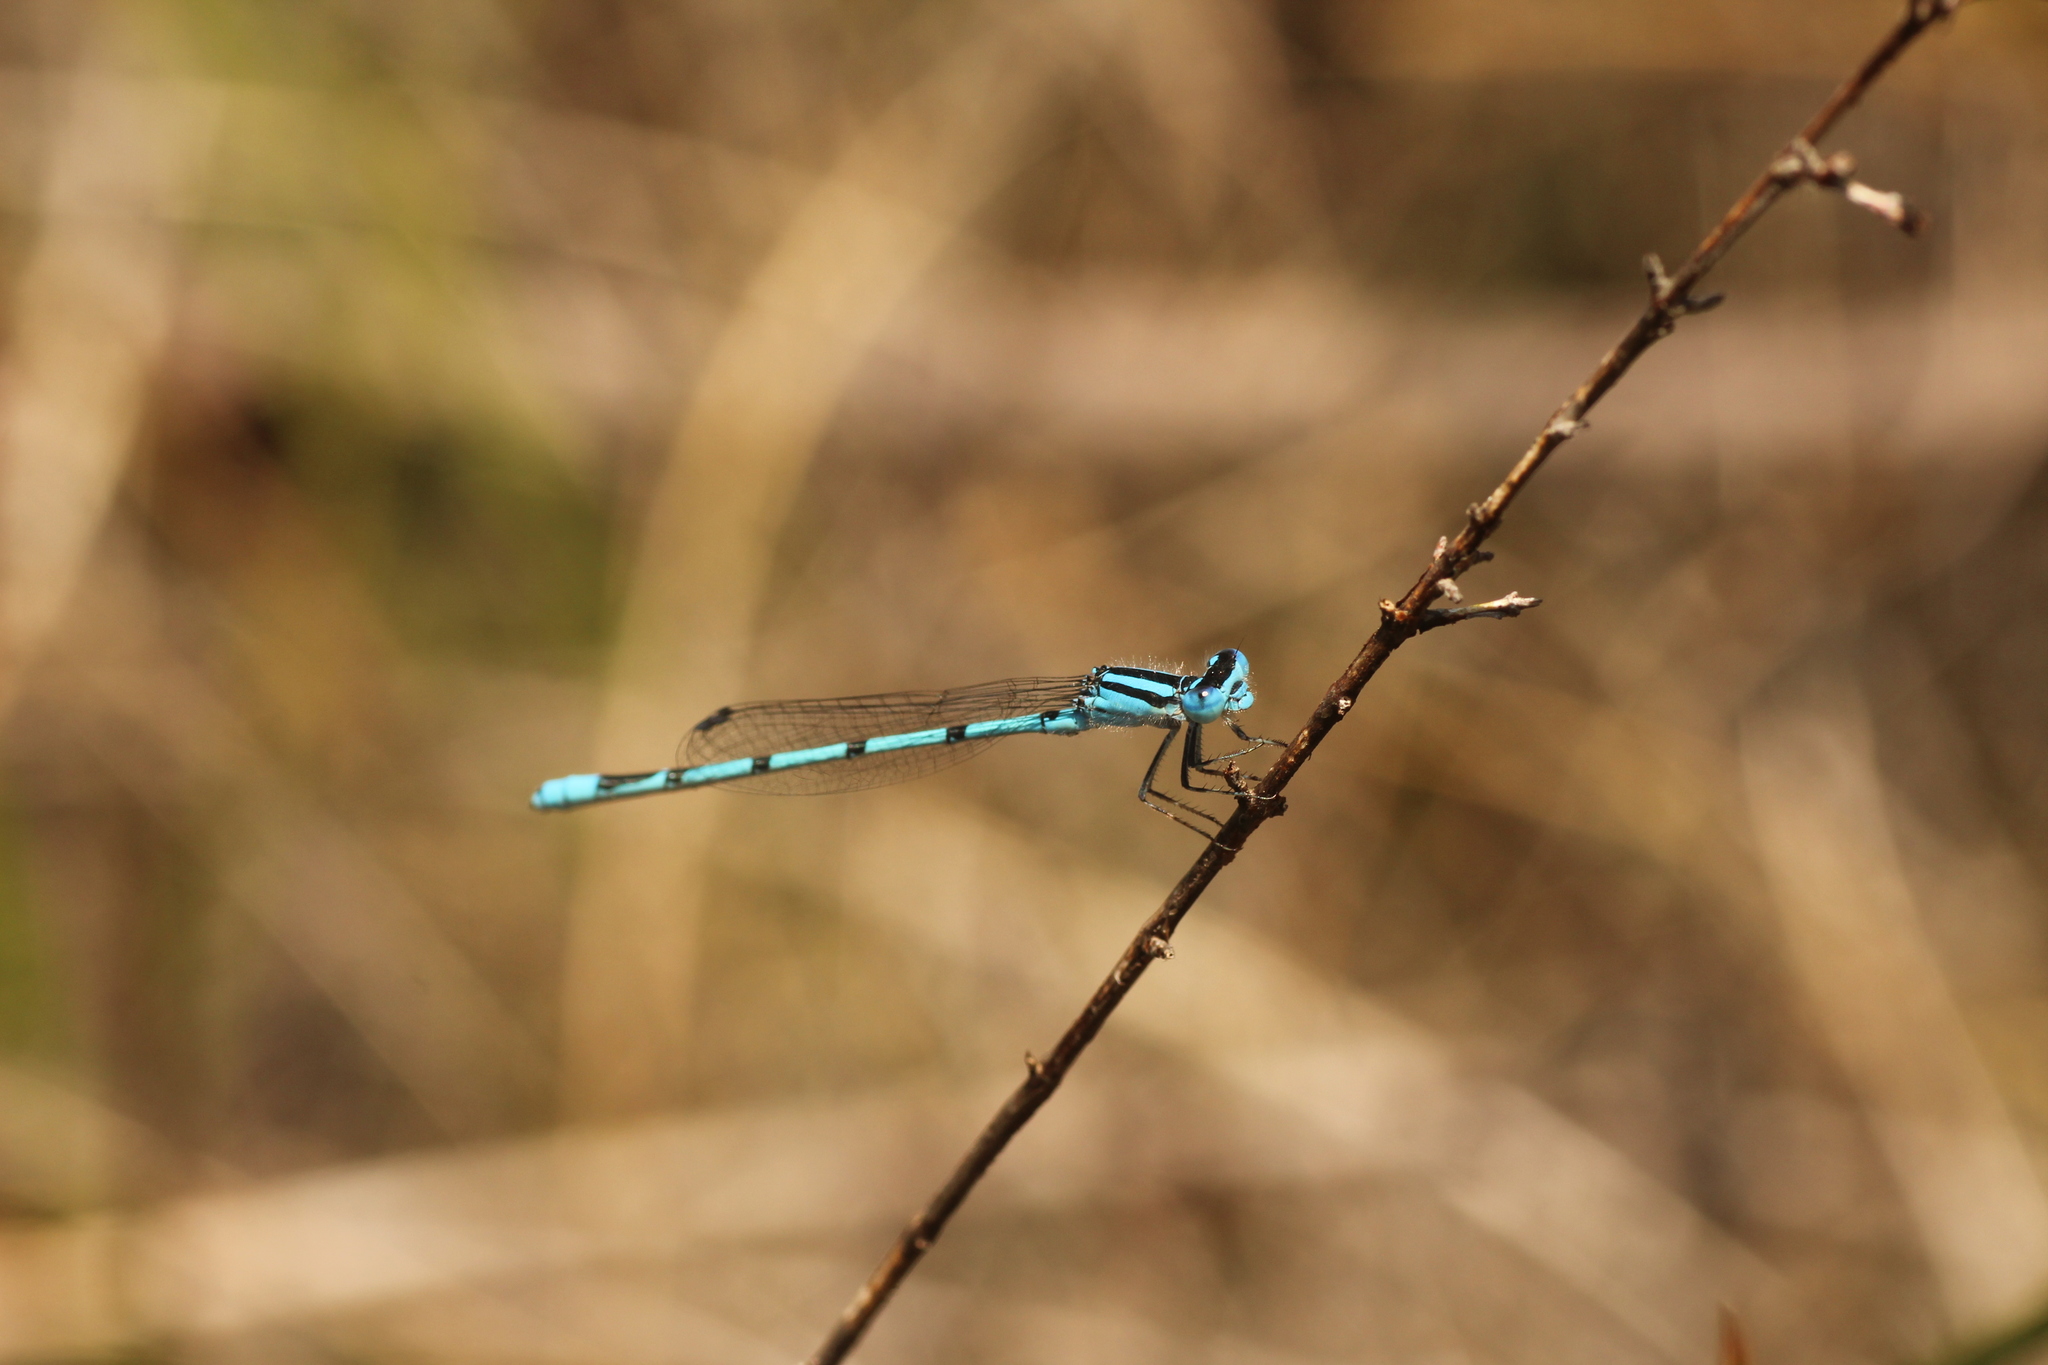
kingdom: Animalia
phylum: Arthropoda
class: Insecta
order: Odonata
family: Coenagrionidae
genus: Enallagma
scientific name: Enallagma doubledayi
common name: Atlantic bluet
